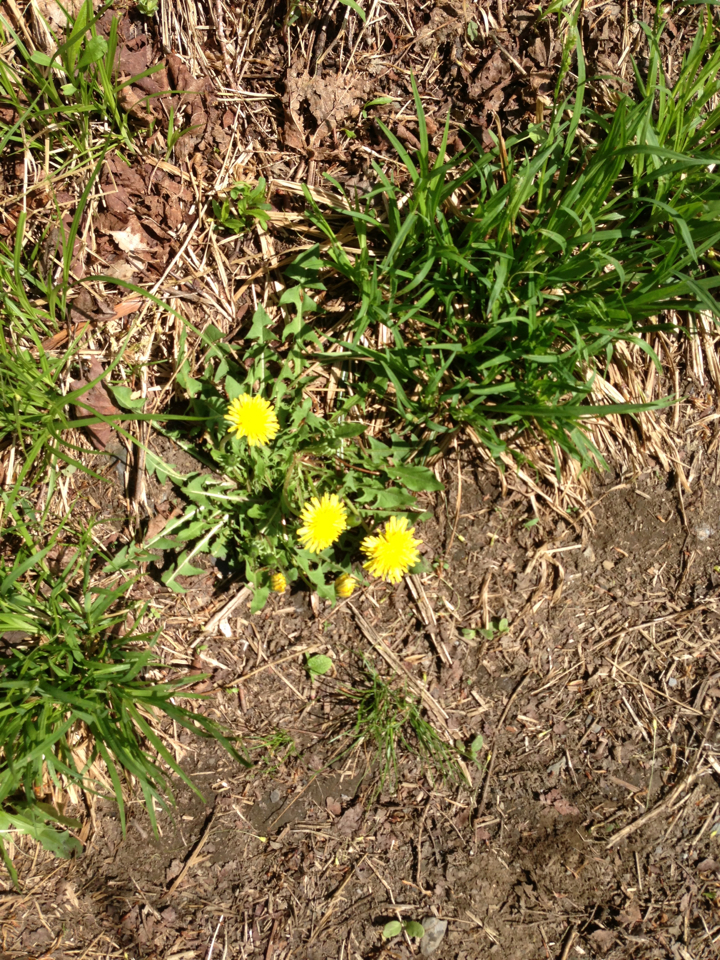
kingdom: Plantae
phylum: Tracheophyta
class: Magnoliopsida
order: Asterales
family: Asteraceae
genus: Taraxacum
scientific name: Taraxacum officinale
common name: Common dandelion
